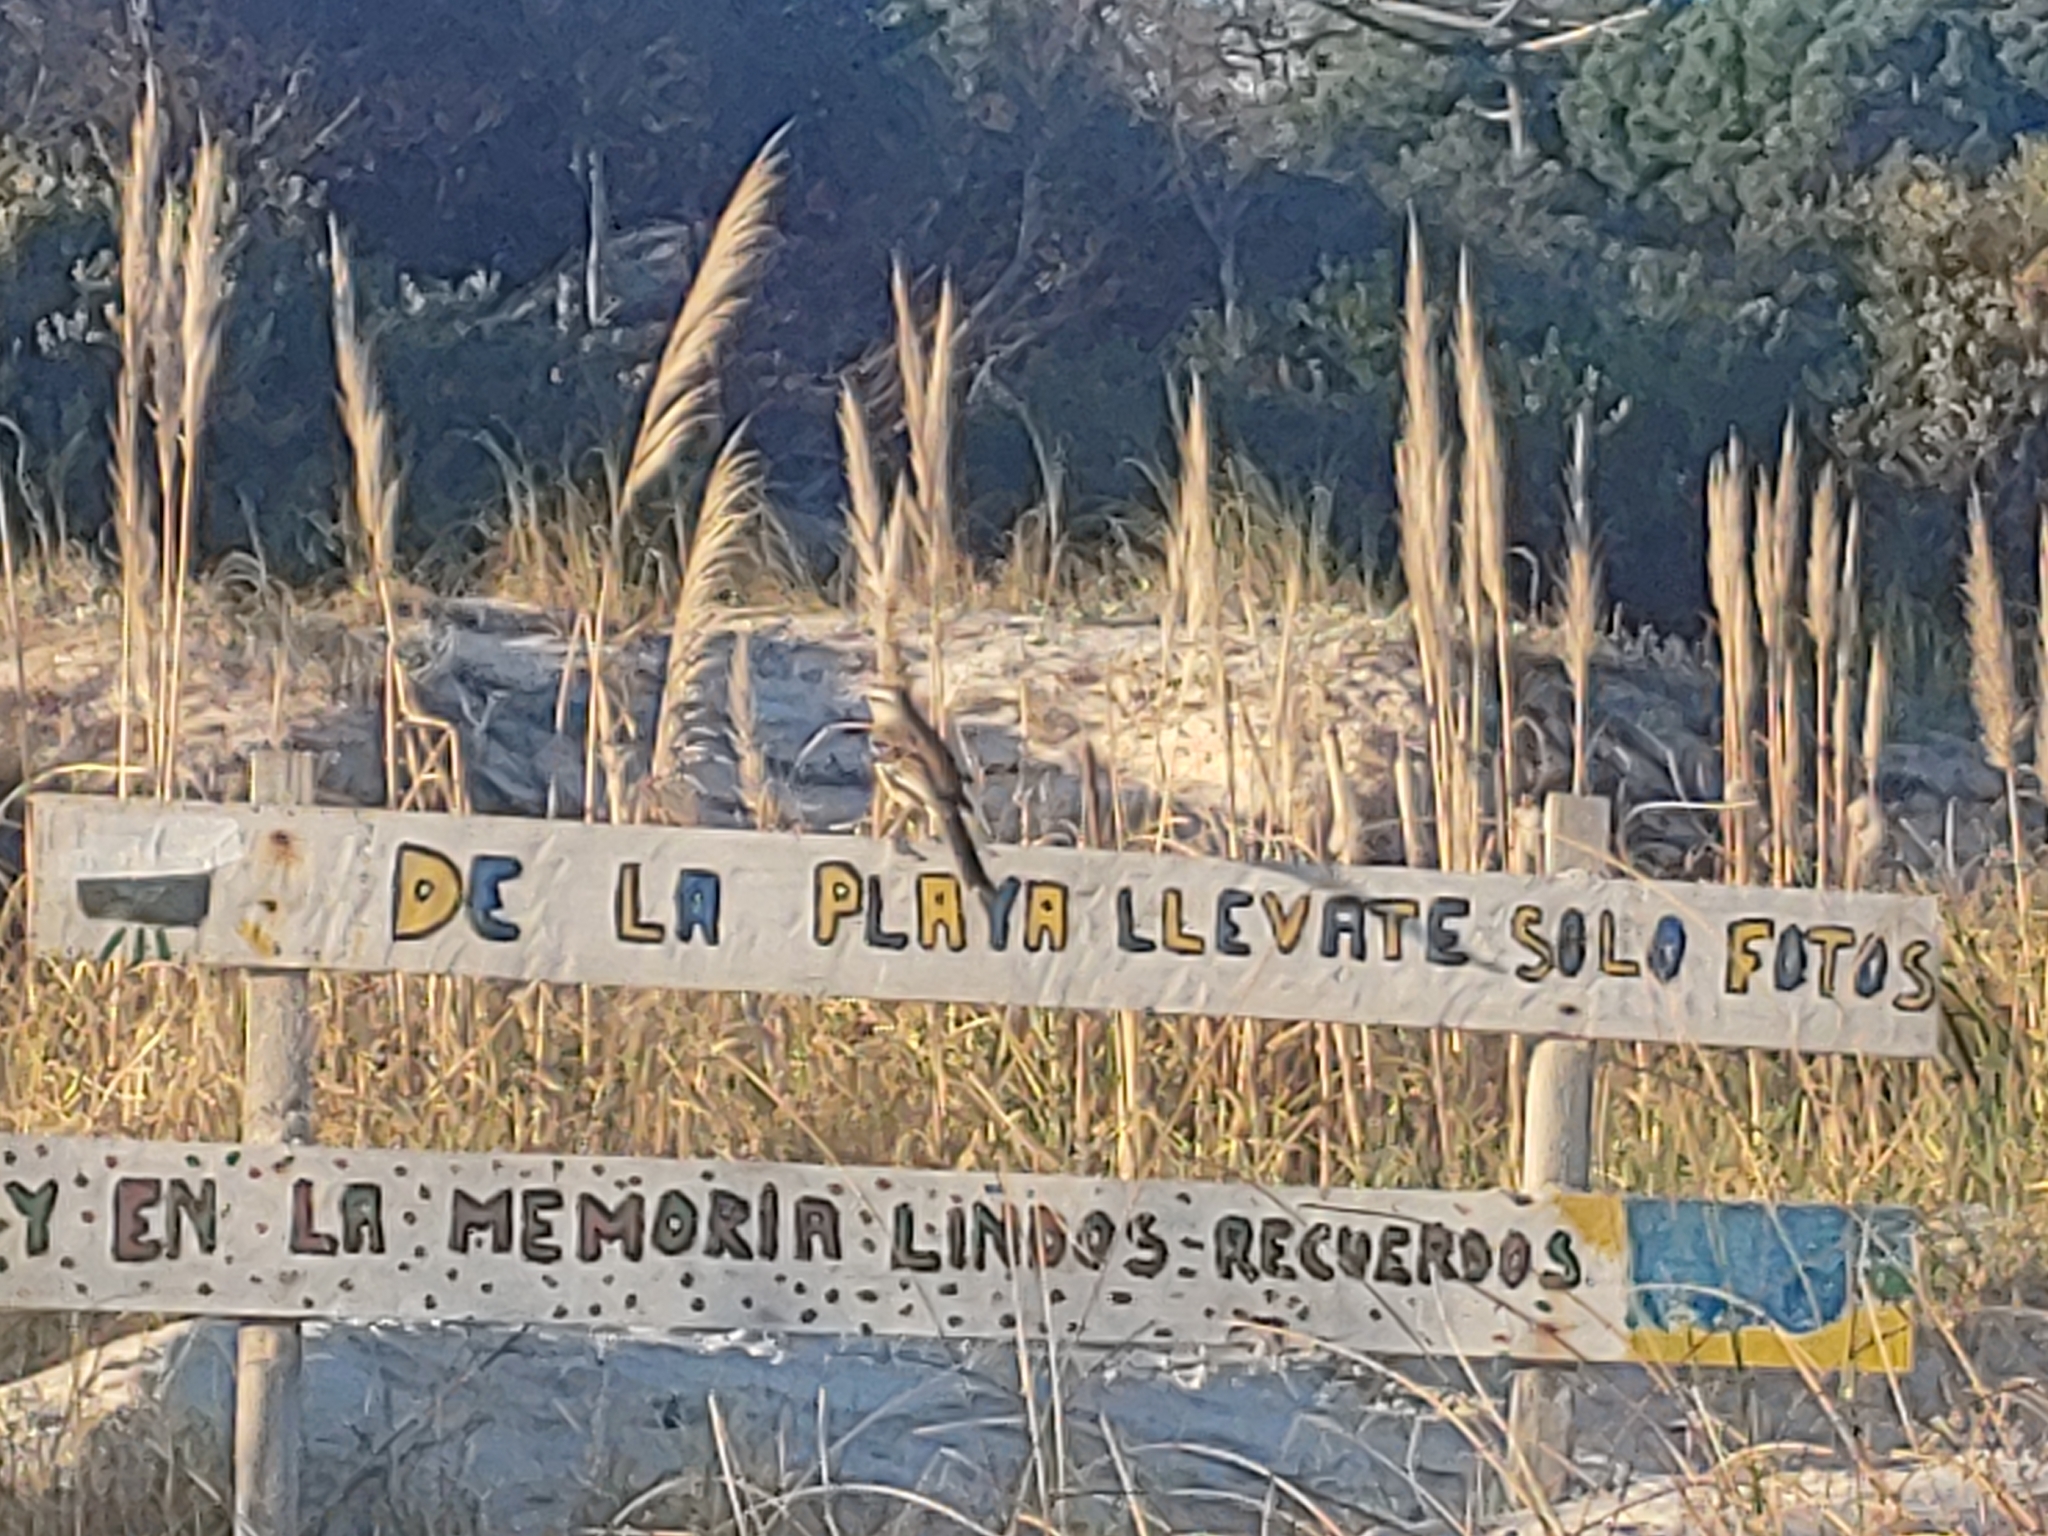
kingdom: Animalia
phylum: Chordata
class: Aves
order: Passeriformes
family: Mimidae
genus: Mimus
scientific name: Mimus saturninus
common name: Chalk-browed mockingbird
